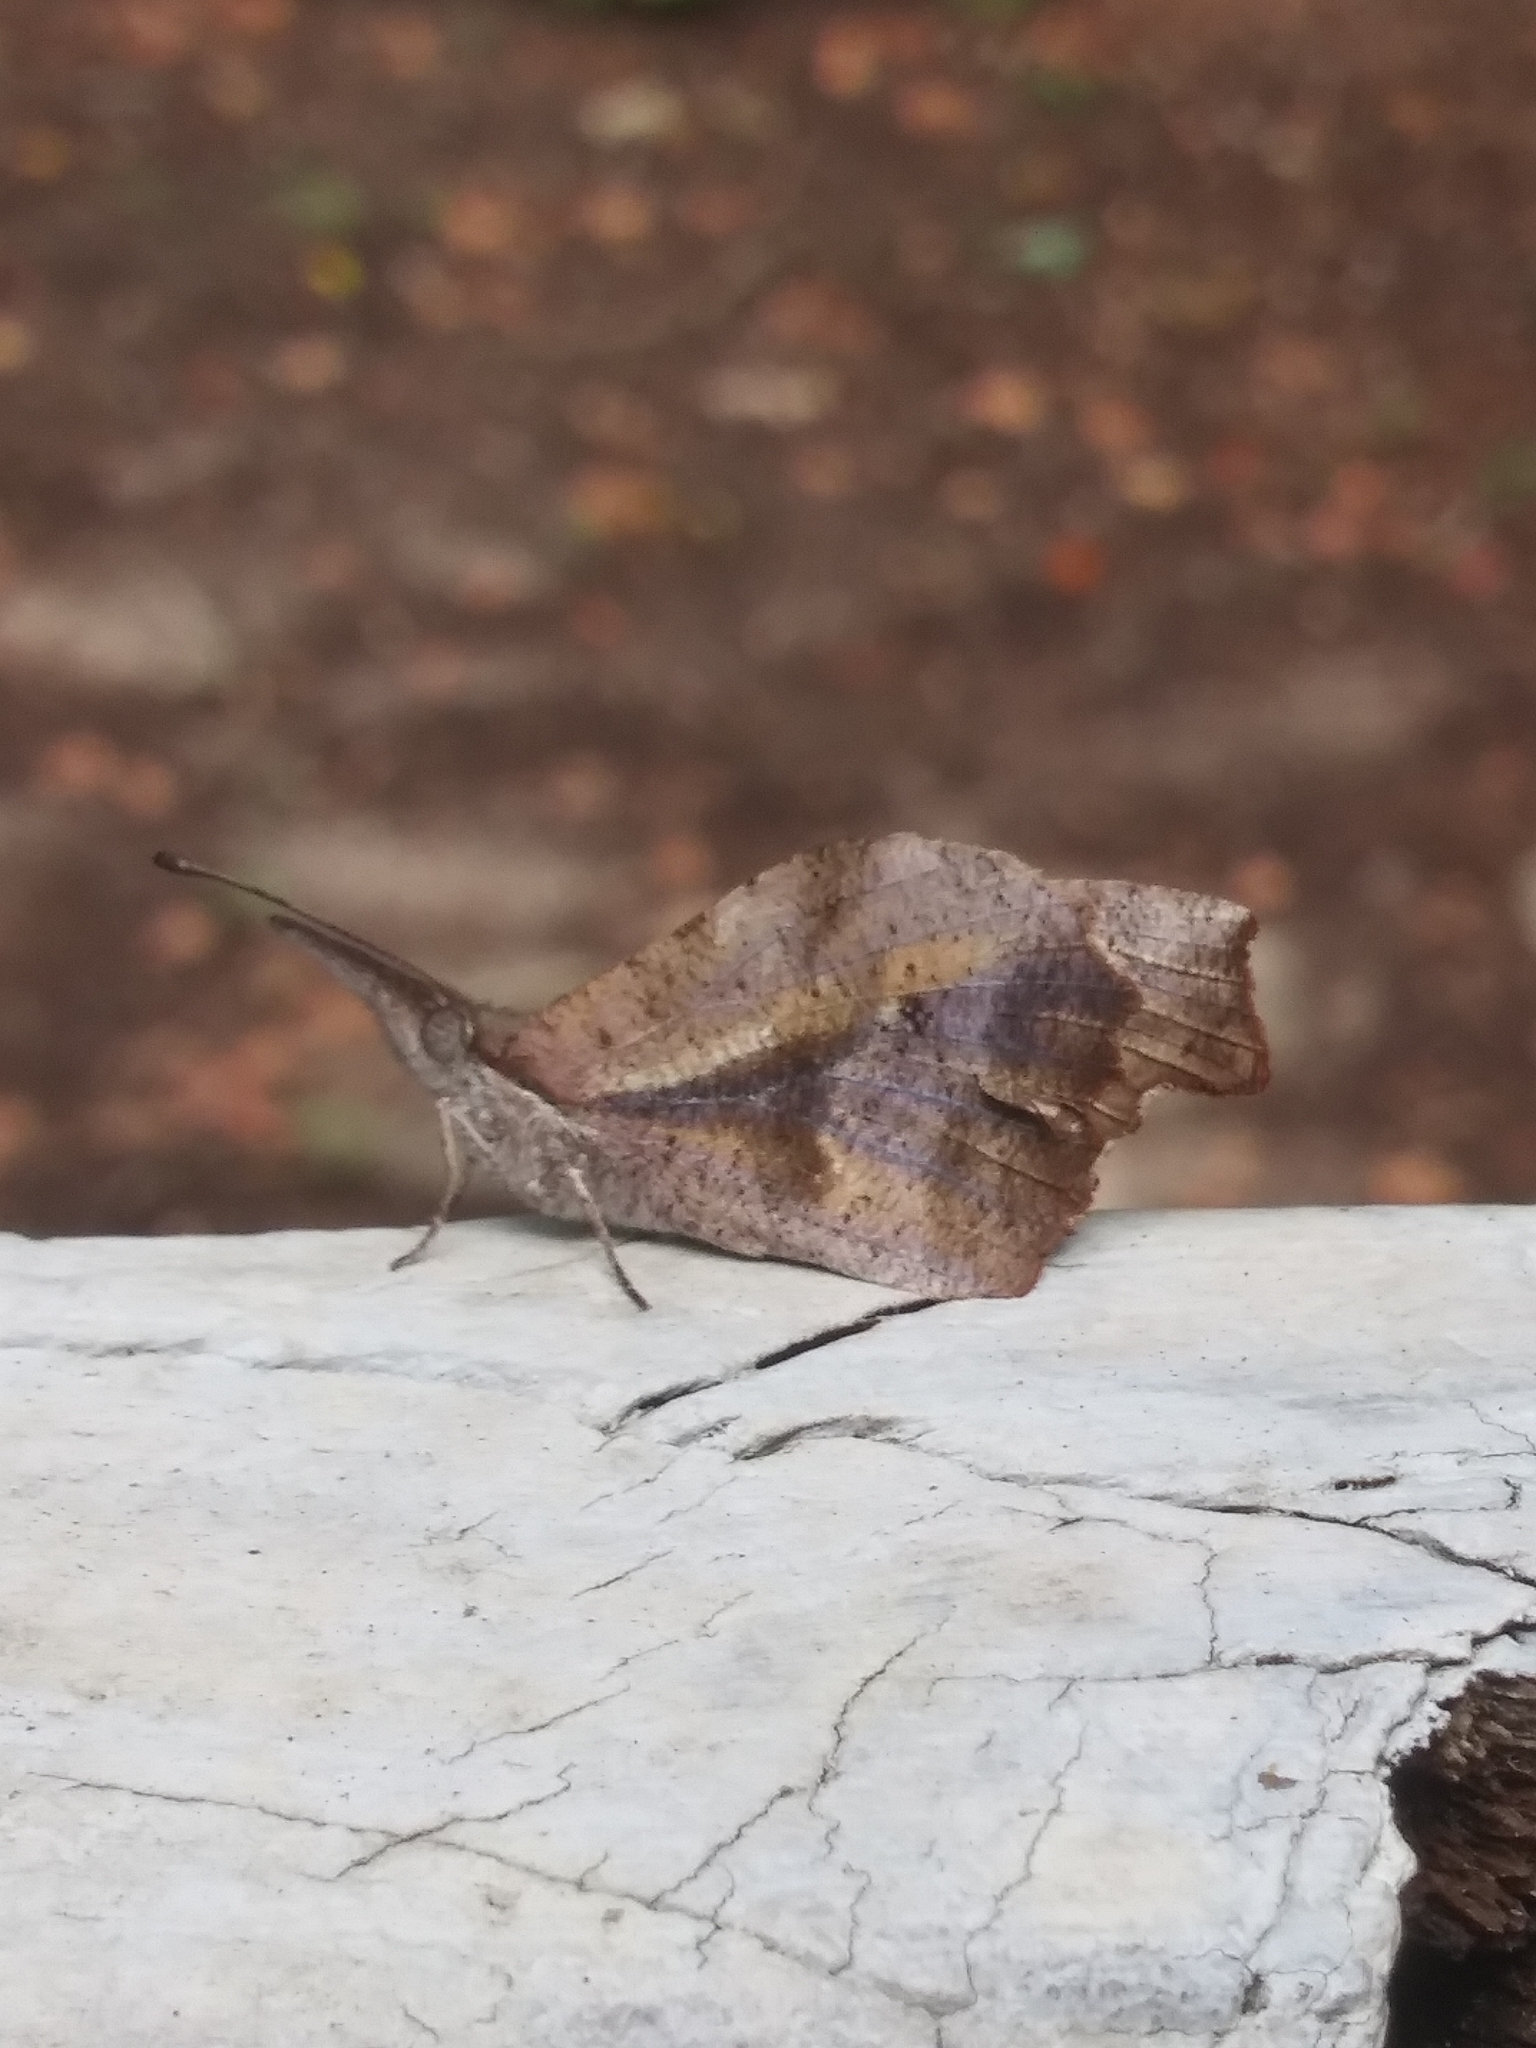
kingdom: Animalia
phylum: Arthropoda
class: Insecta
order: Lepidoptera
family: Nymphalidae
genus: Libytheana
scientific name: Libytheana carinenta
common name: American snout
